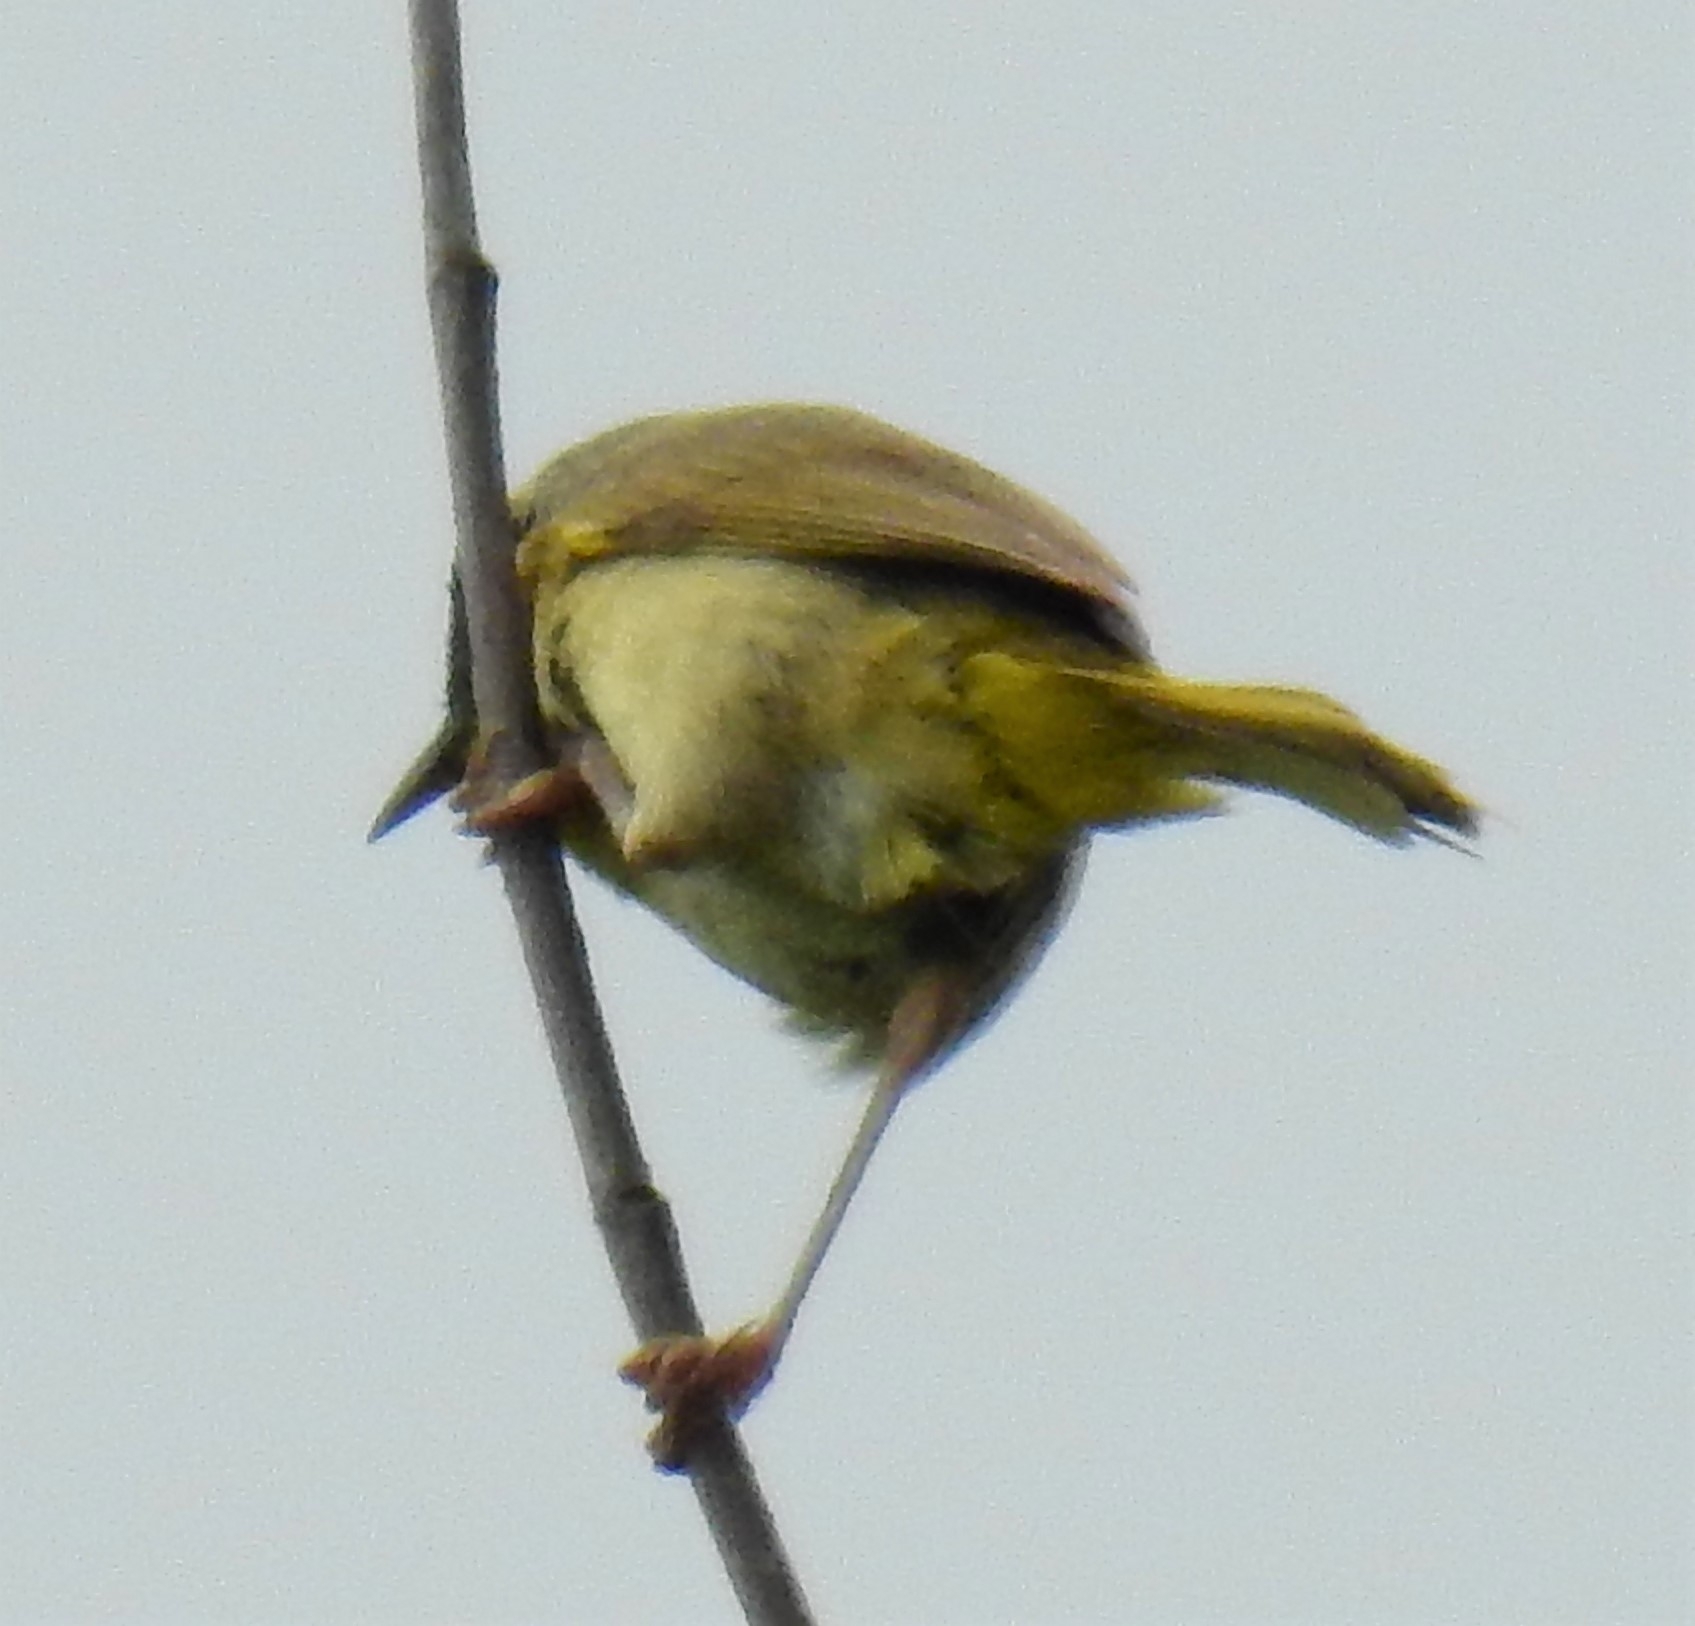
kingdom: Animalia
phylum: Chordata
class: Aves
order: Passeriformes
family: Parulidae
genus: Geothlypis
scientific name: Geothlypis trichas
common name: Common yellowthroat
